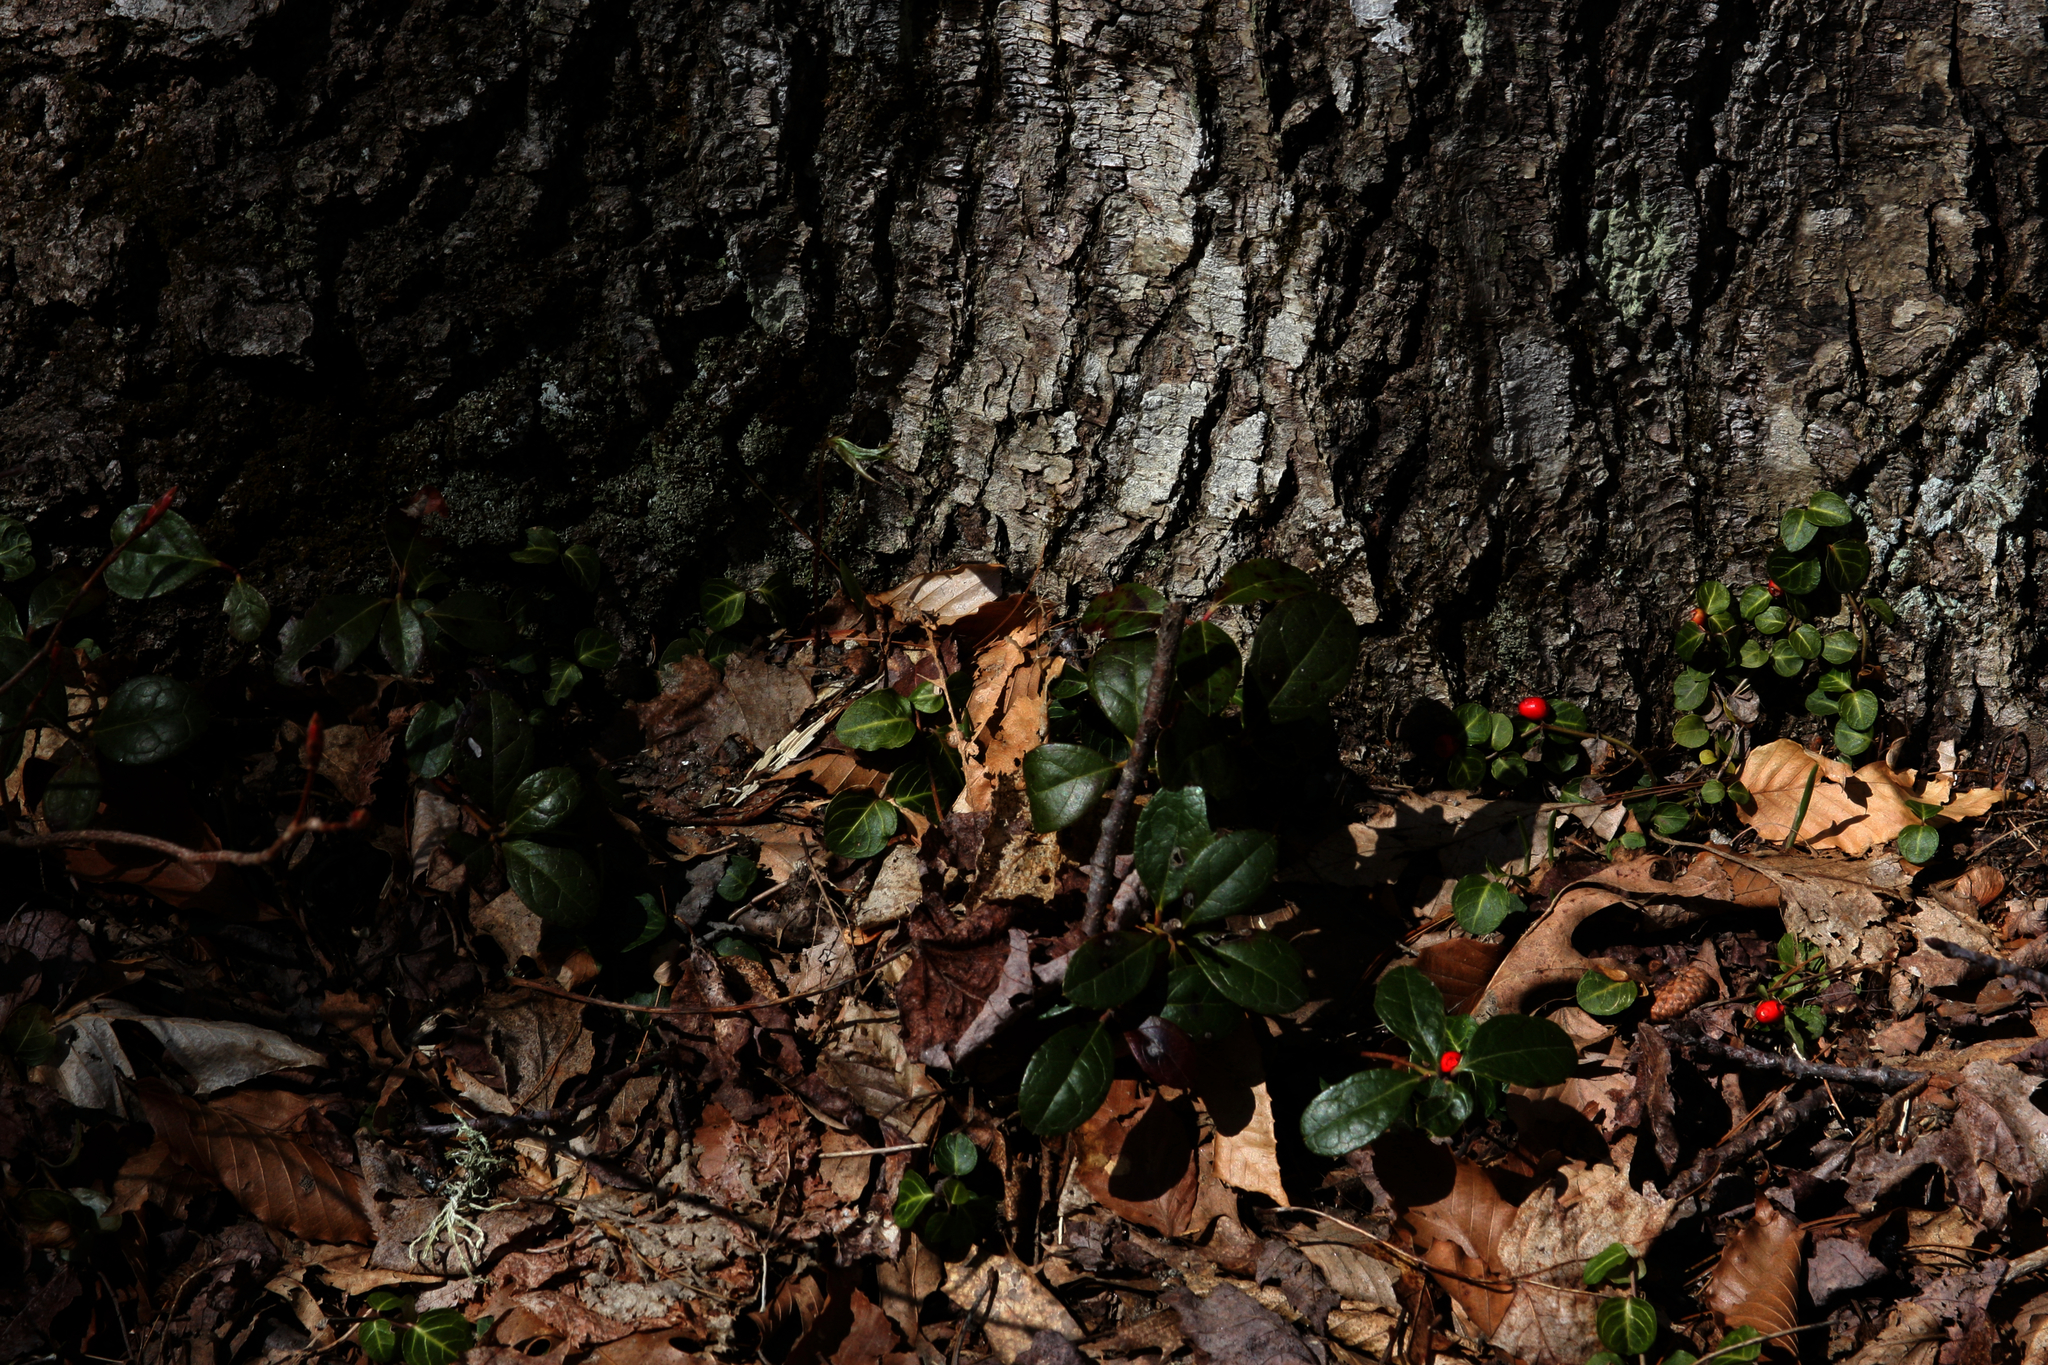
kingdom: Plantae
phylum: Tracheophyta
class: Magnoliopsida
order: Ericales
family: Ericaceae
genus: Gaultheria
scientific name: Gaultheria procumbens
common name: Checkerberry
